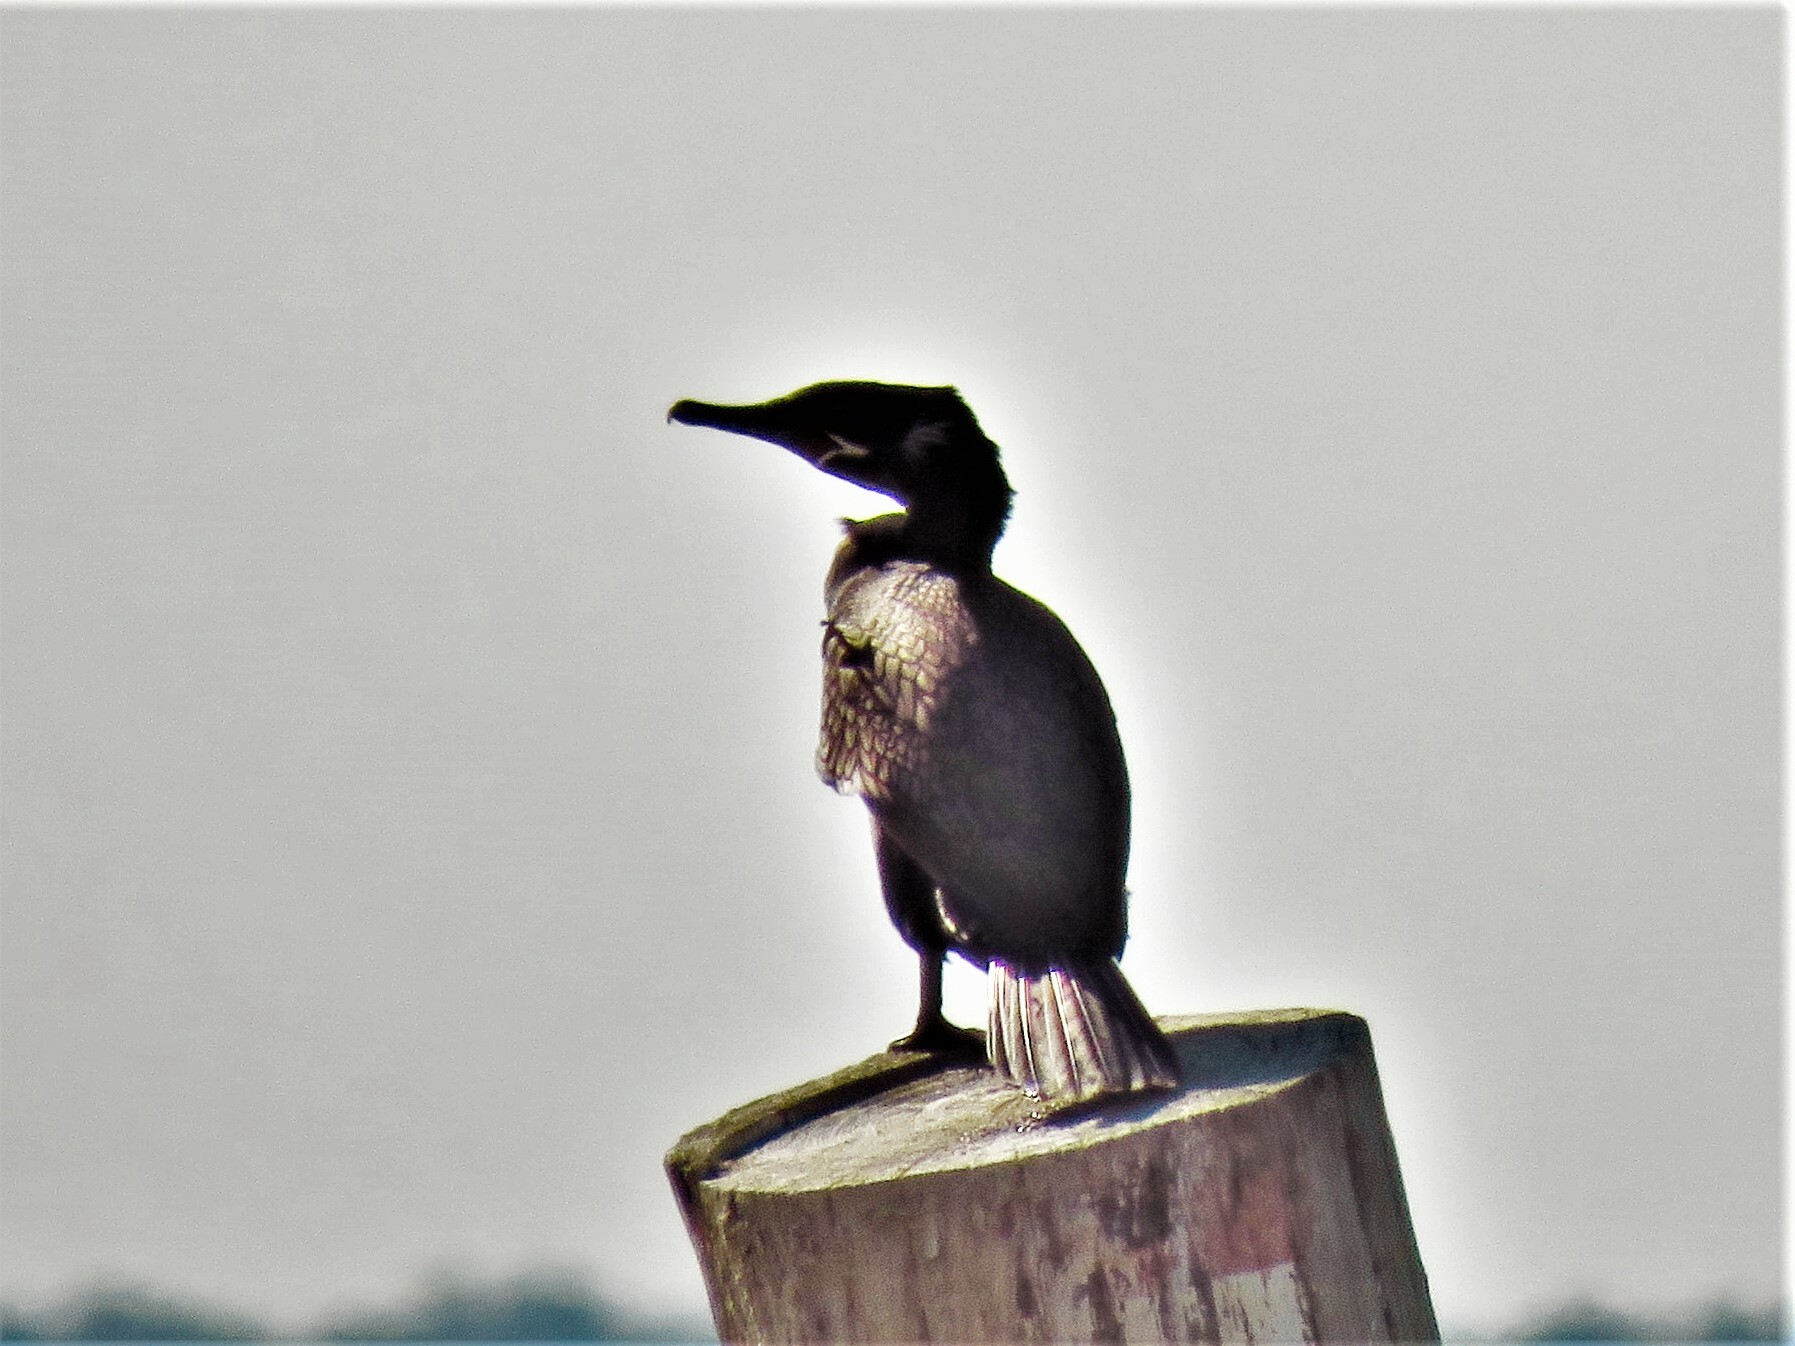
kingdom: Animalia
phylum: Chordata
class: Aves
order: Suliformes
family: Phalacrocoracidae
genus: Phalacrocorax
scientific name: Phalacrocorax brasilianus
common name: Neotropic cormorant
